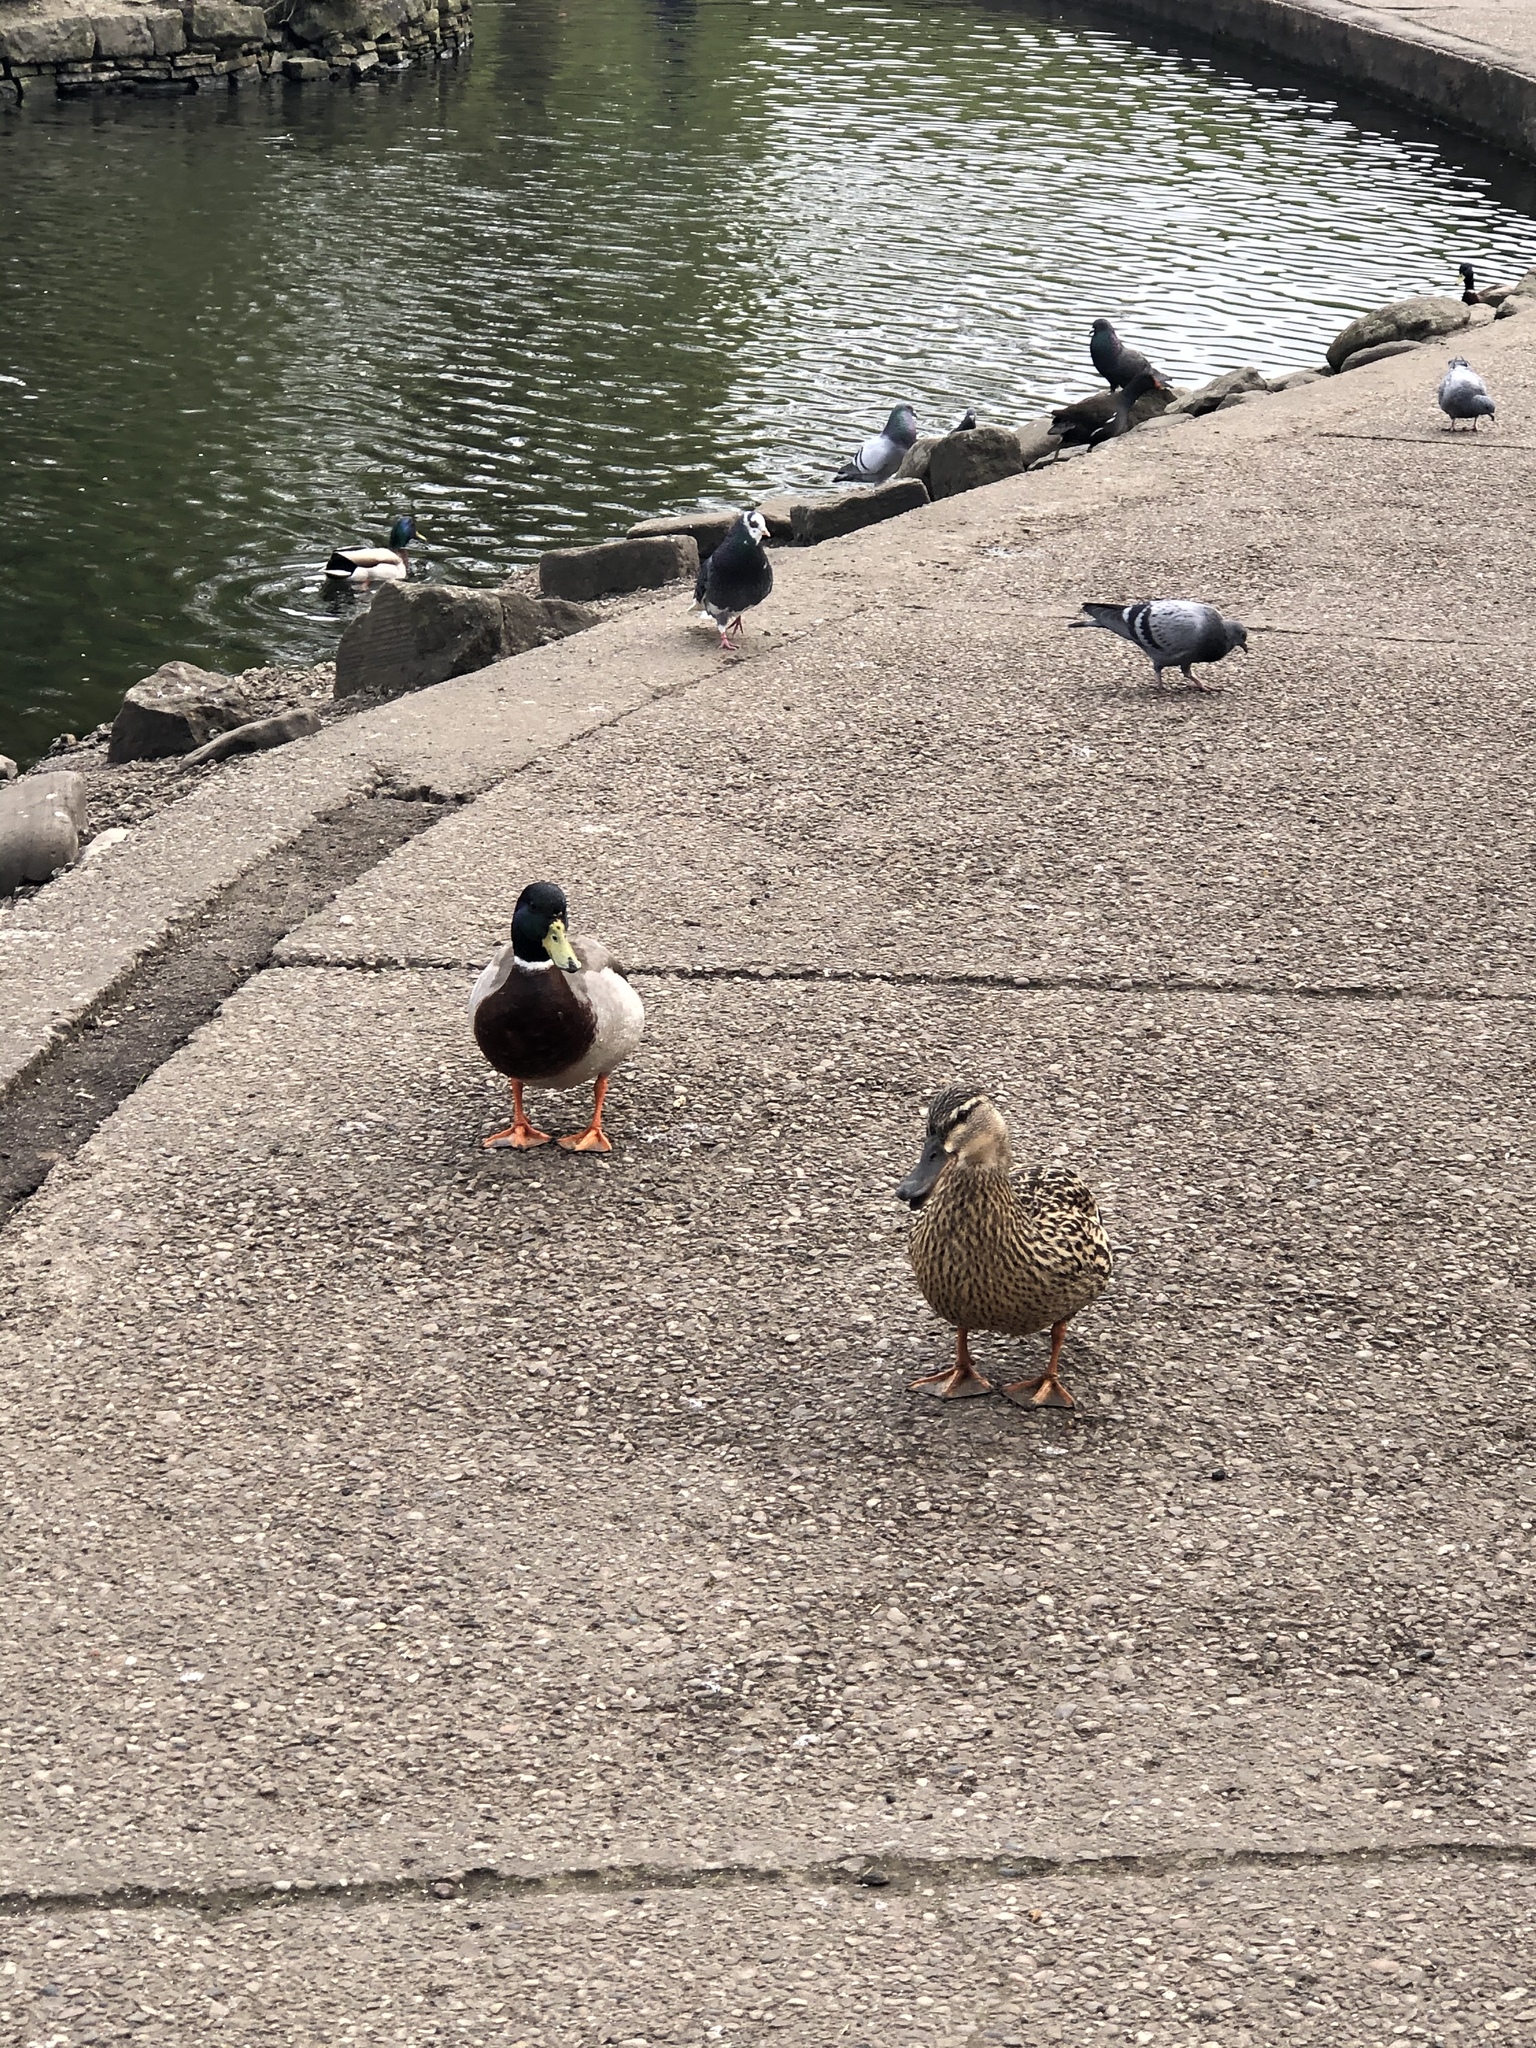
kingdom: Animalia
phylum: Chordata
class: Aves
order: Anseriformes
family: Anatidae
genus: Anas
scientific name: Anas platyrhynchos
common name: Mallard
